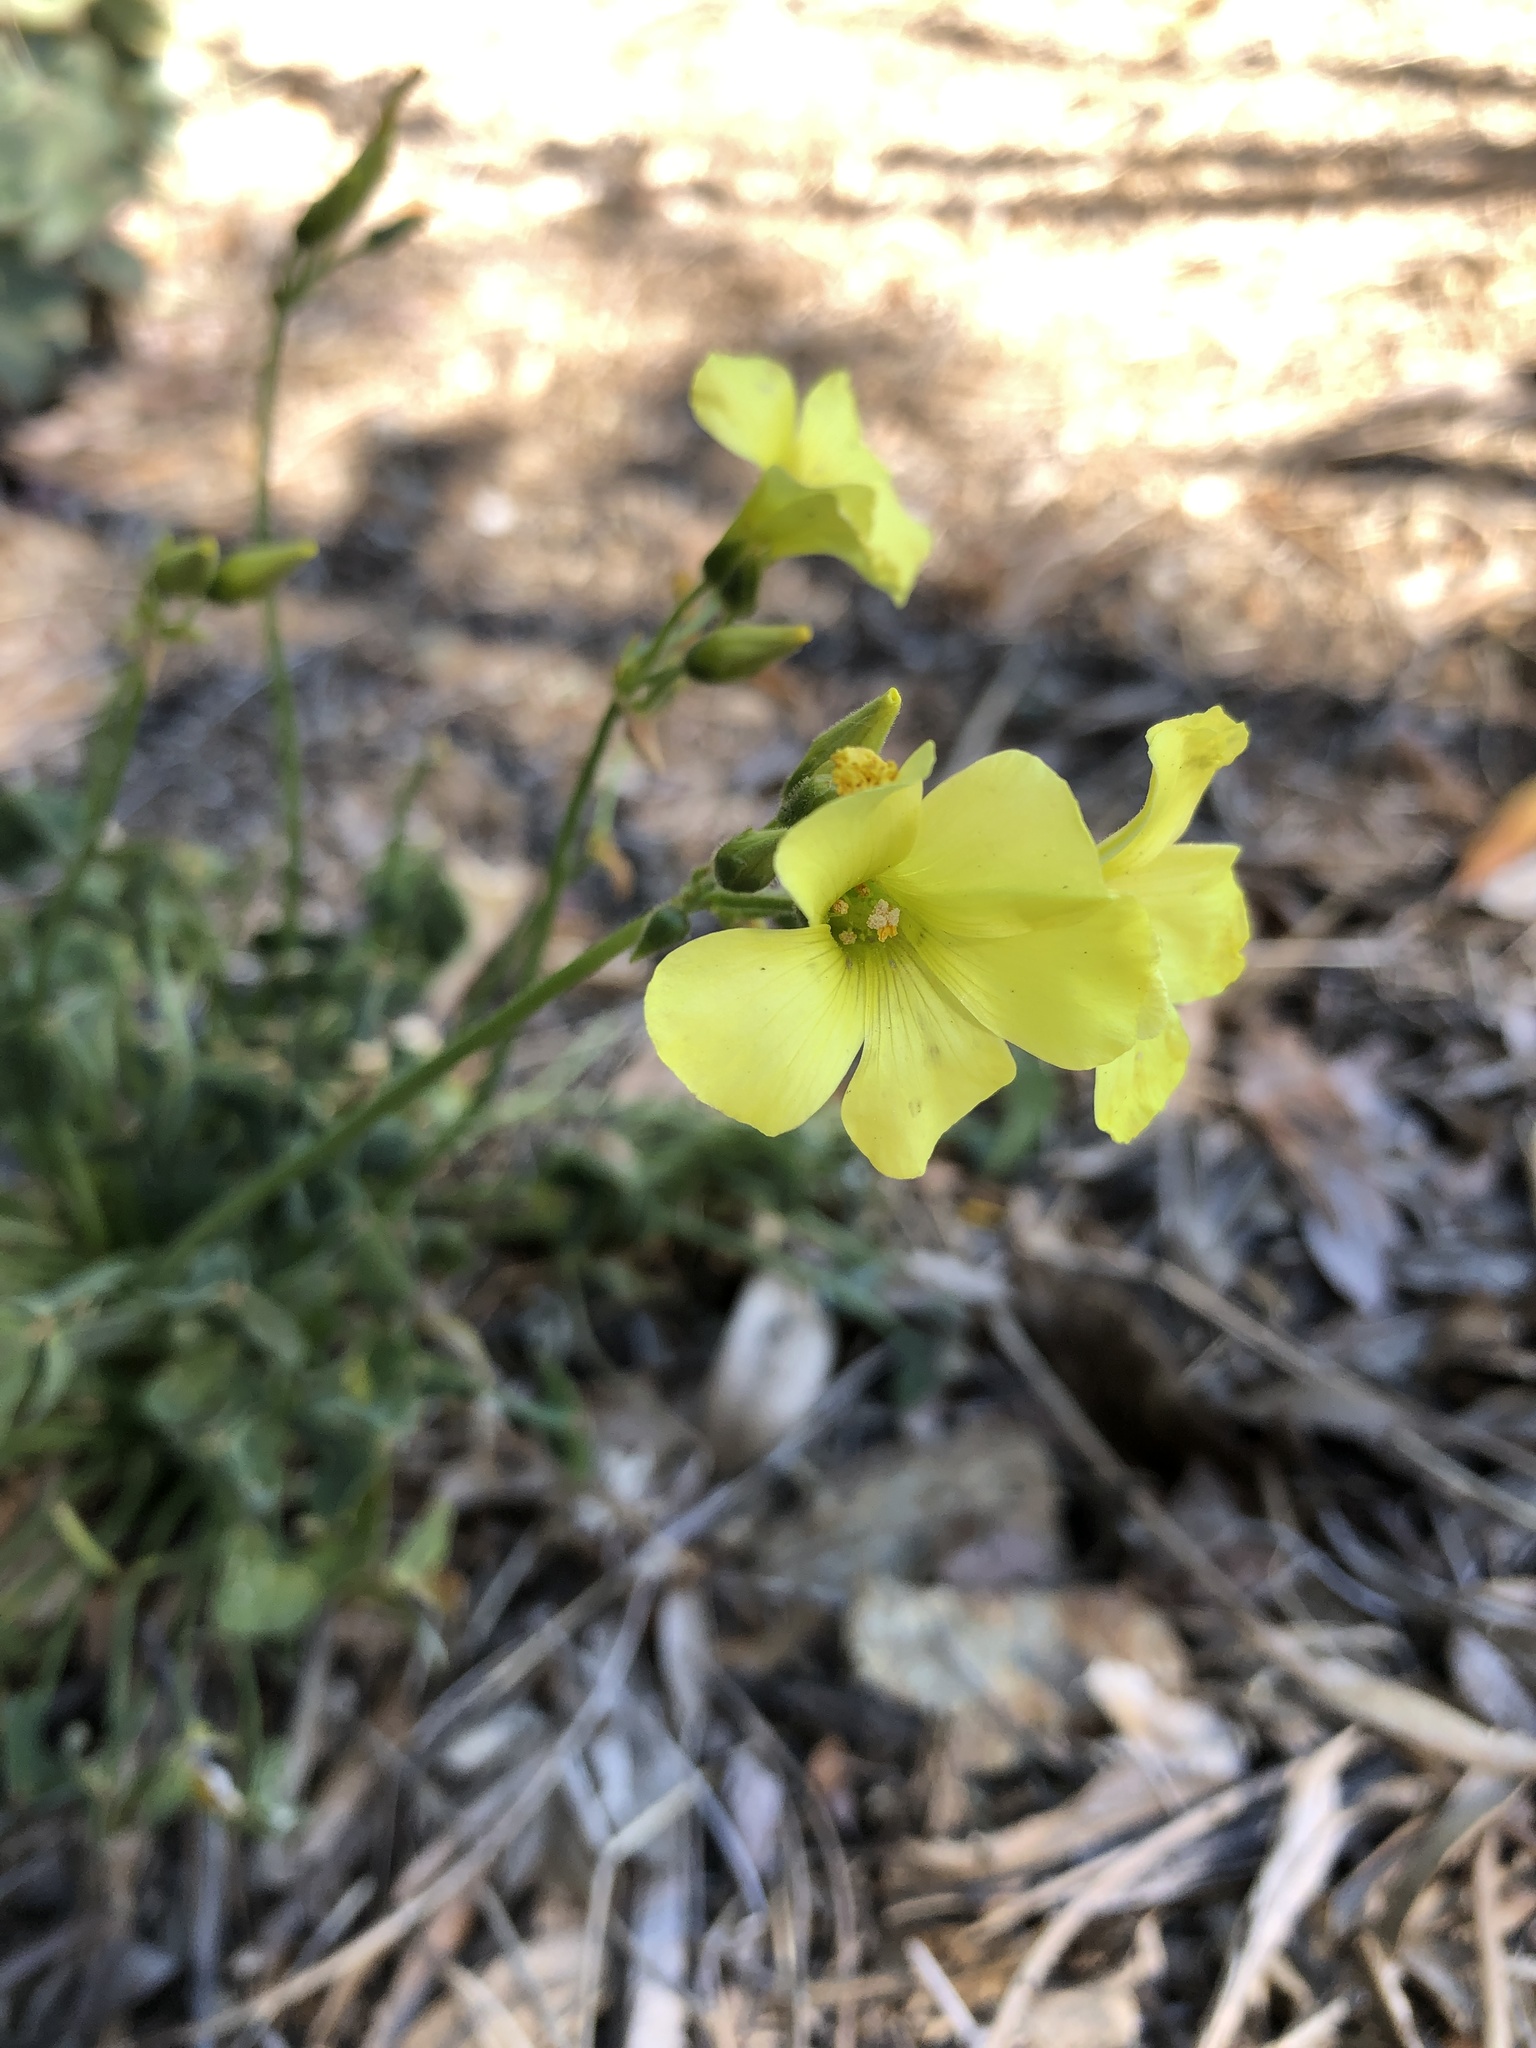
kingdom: Plantae
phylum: Tracheophyta
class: Magnoliopsida
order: Oxalidales
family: Oxalidaceae
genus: Oxalis
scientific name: Oxalis pes-caprae
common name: Bermuda-buttercup
